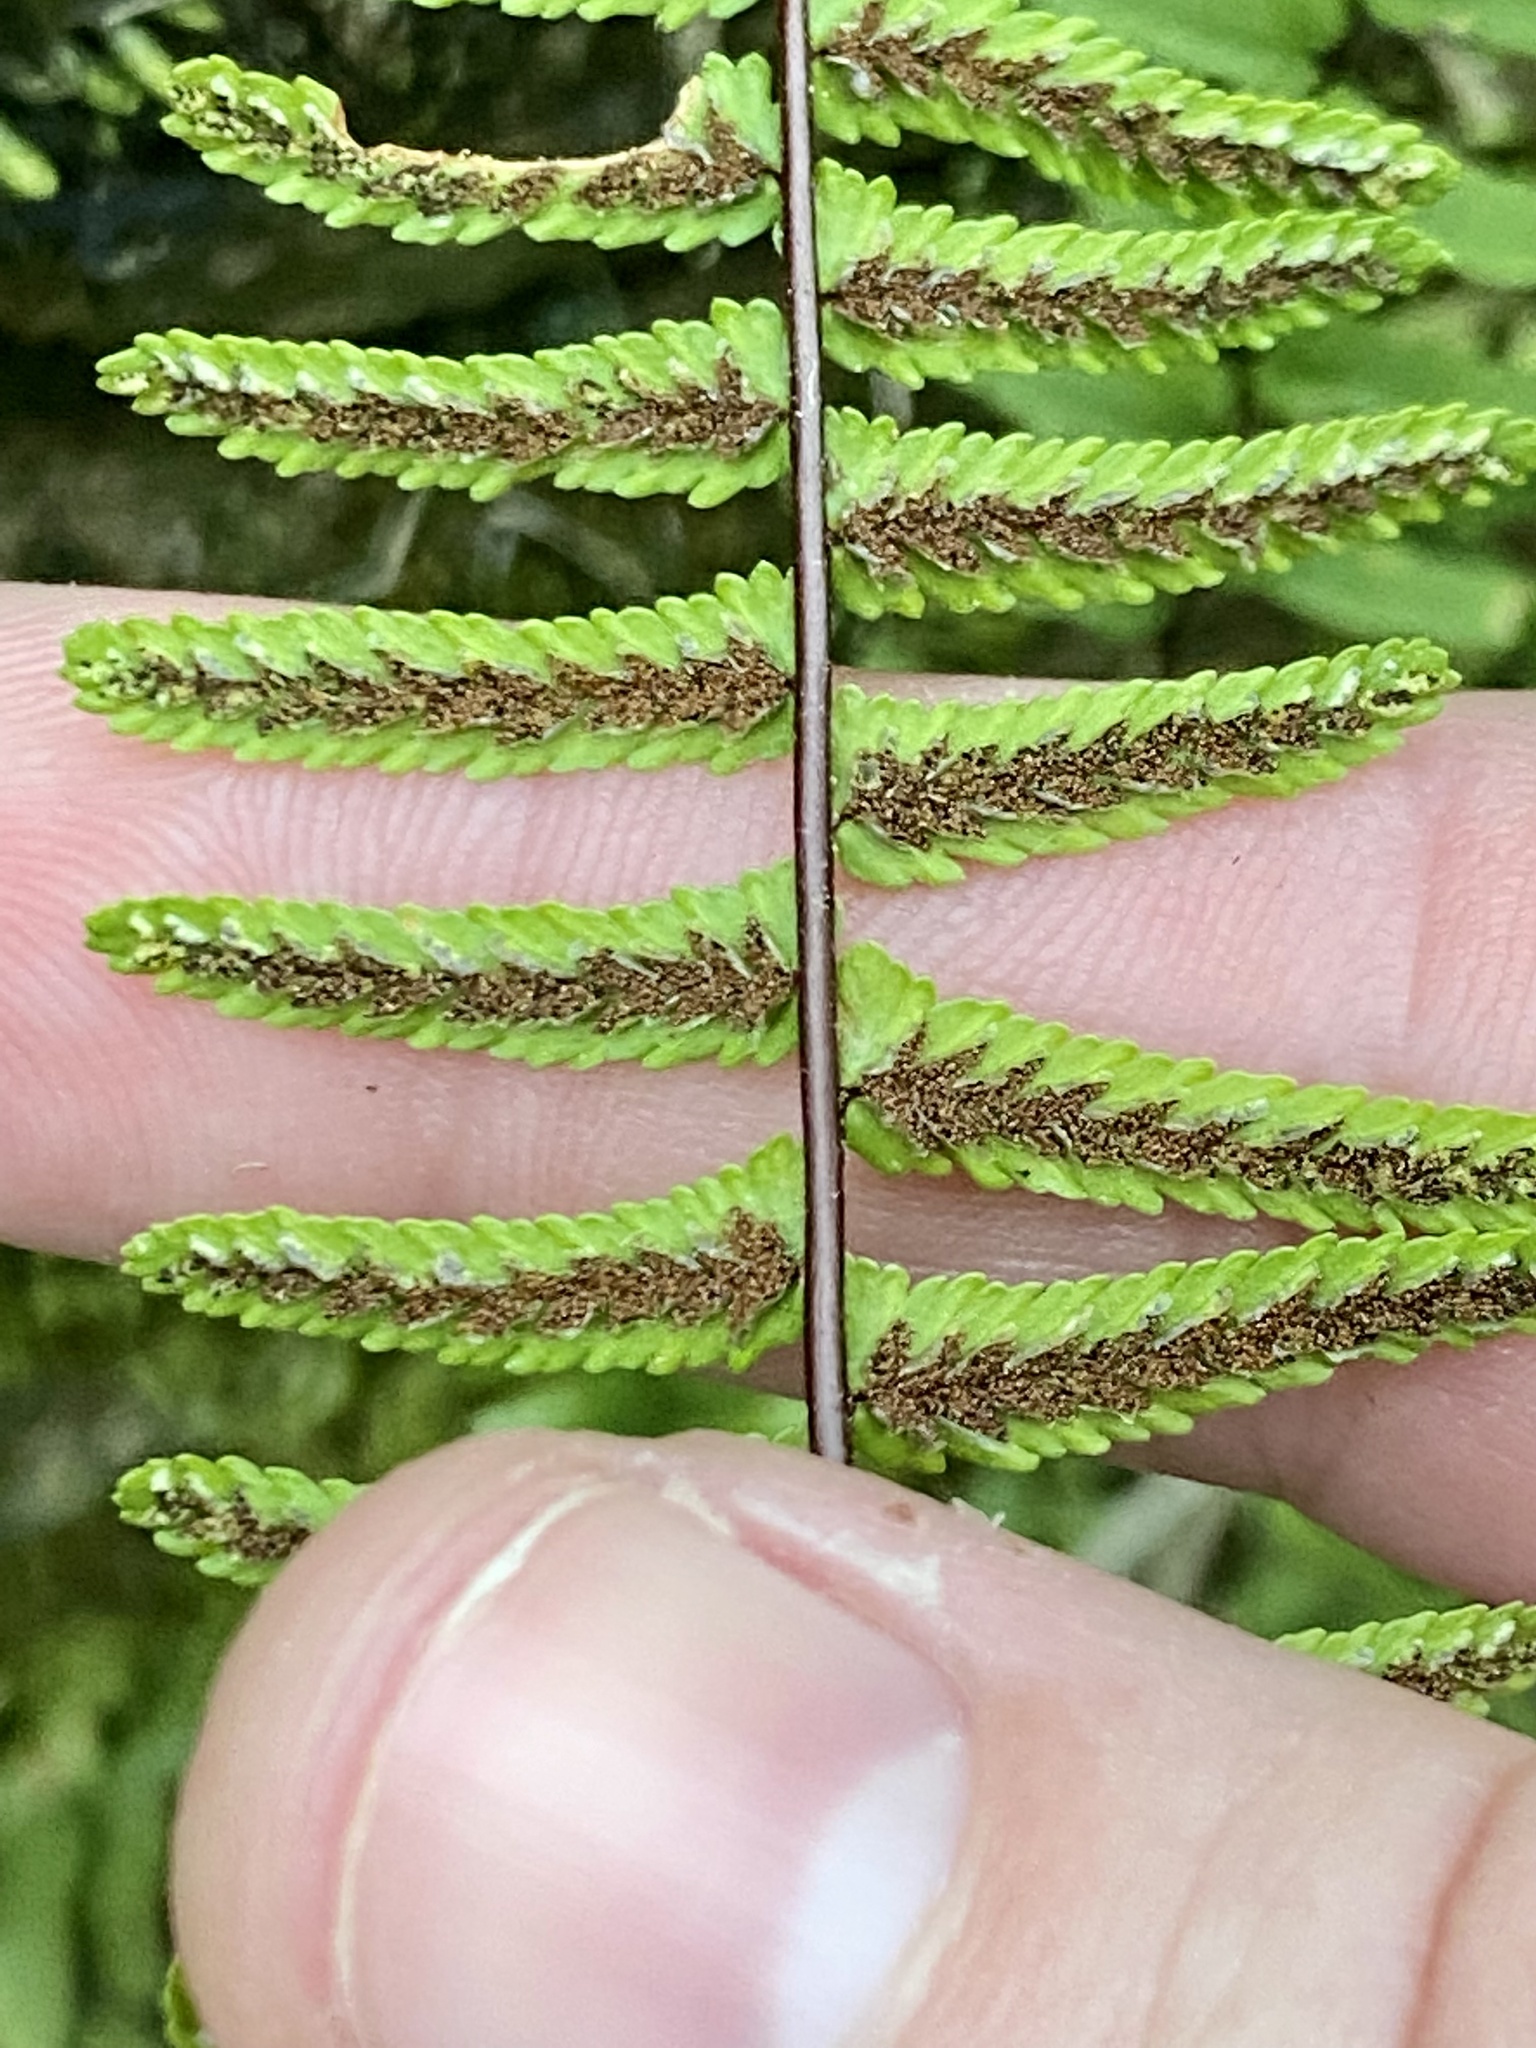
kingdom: Plantae
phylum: Tracheophyta
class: Polypodiopsida
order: Polypodiales
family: Aspleniaceae
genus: Asplenium
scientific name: Asplenium platyneuron
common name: Ebony spleenwort
